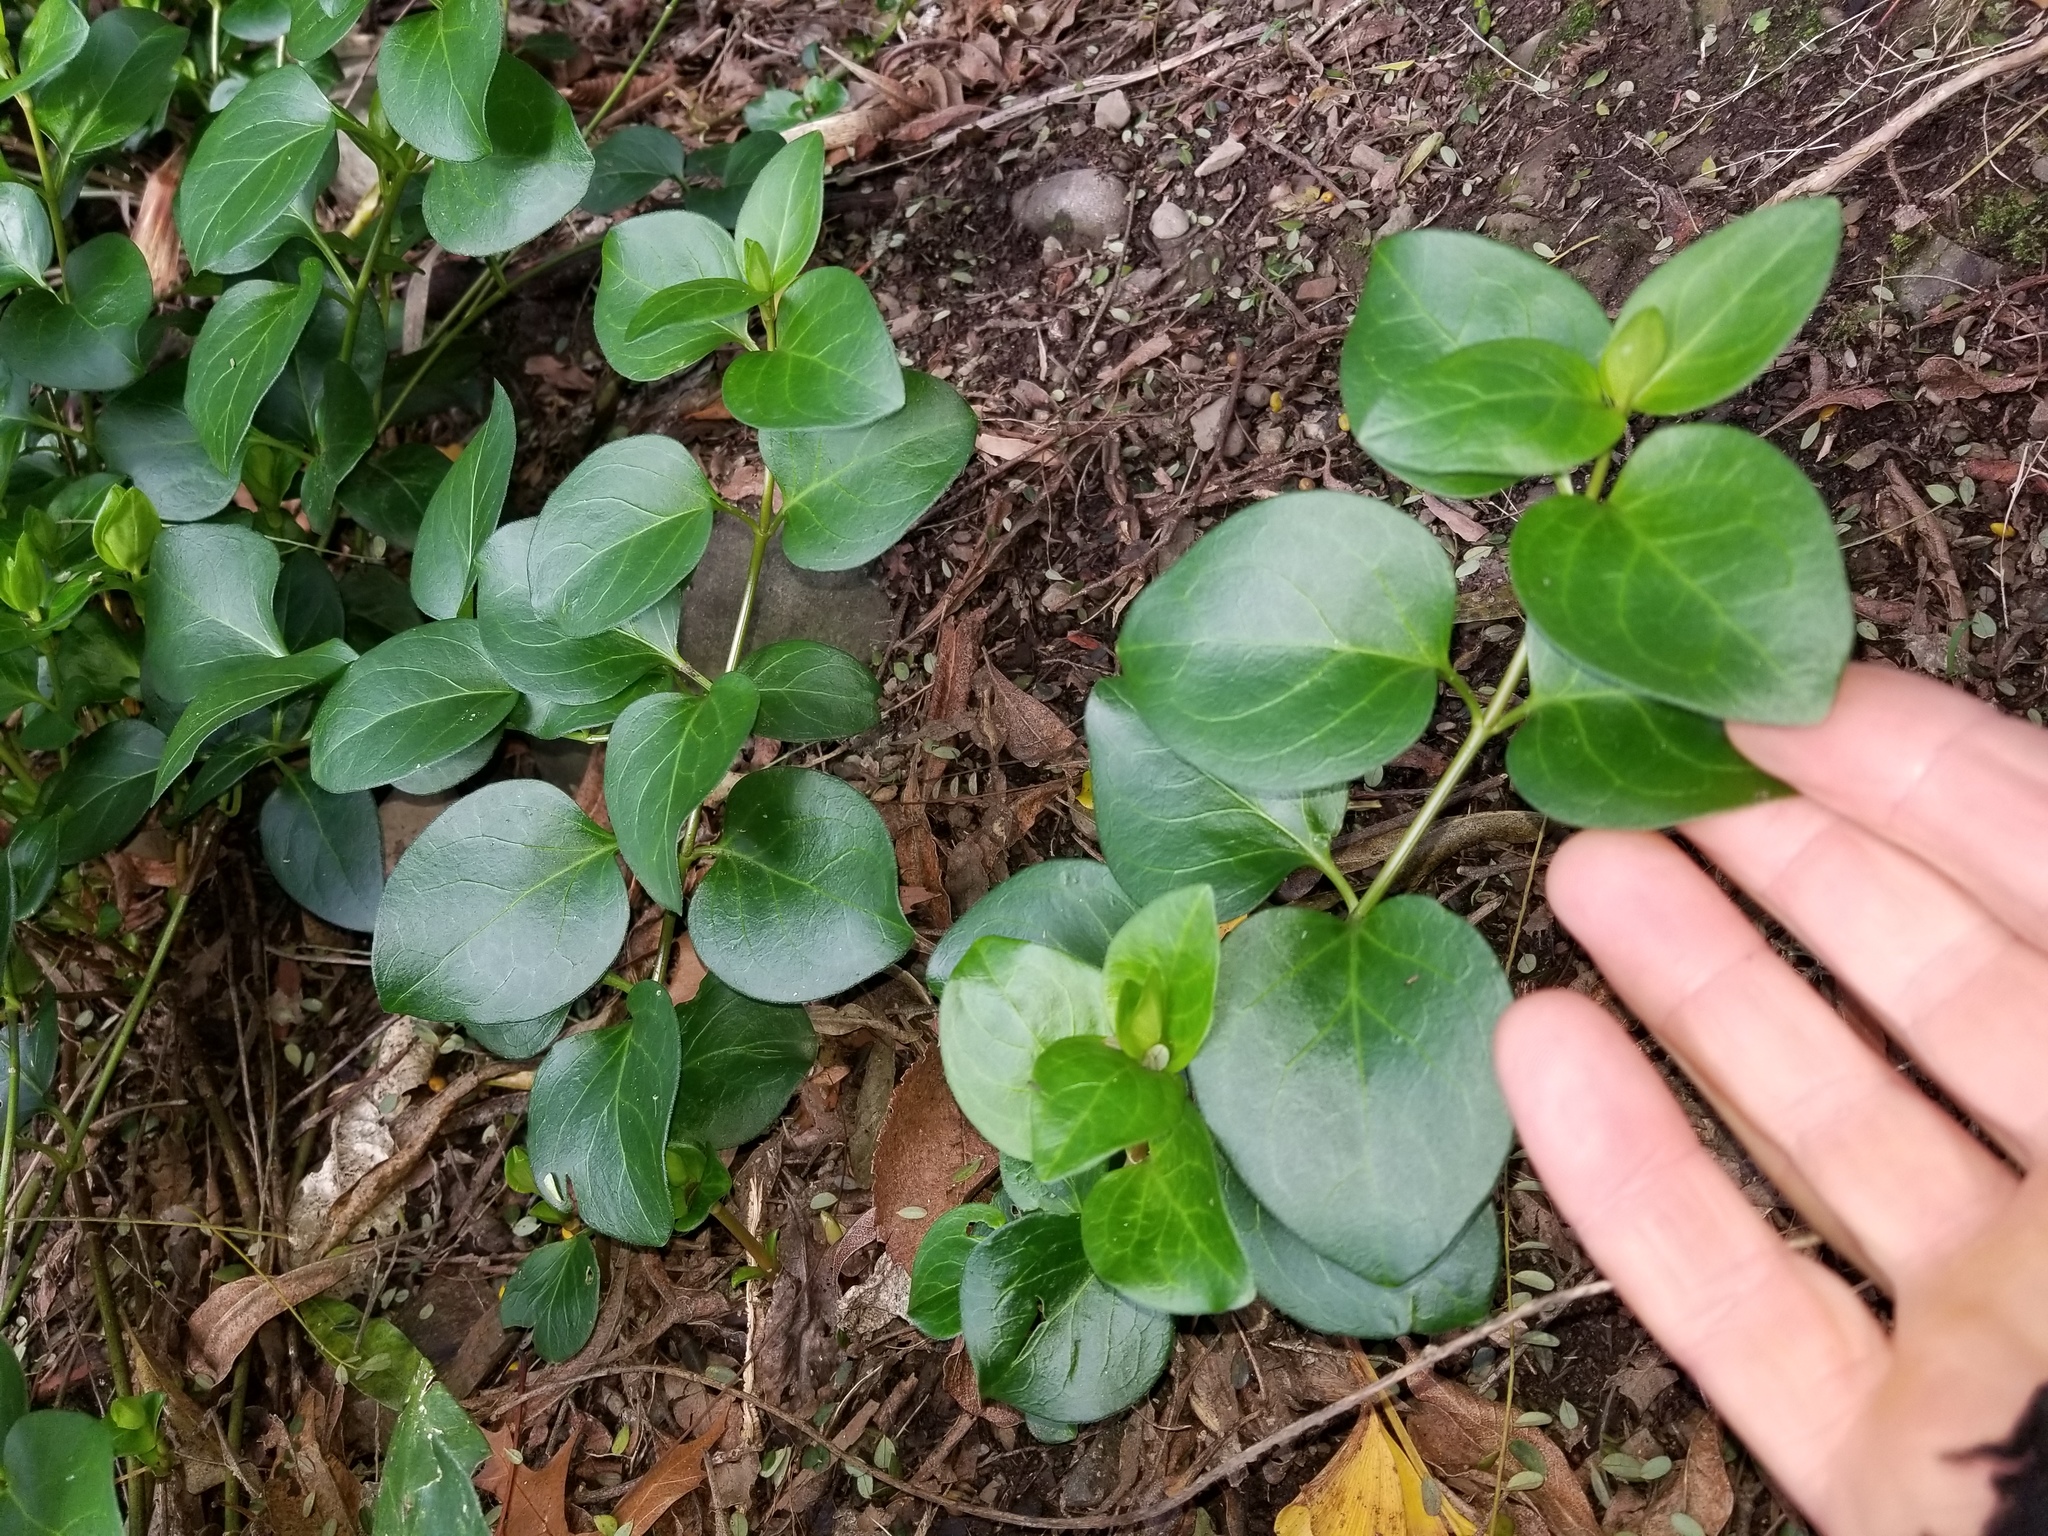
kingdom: Plantae
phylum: Tracheophyta
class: Magnoliopsida
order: Gentianales
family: Apocynaceae
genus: Vinca
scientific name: Vinca major
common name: Greater periwinkle
